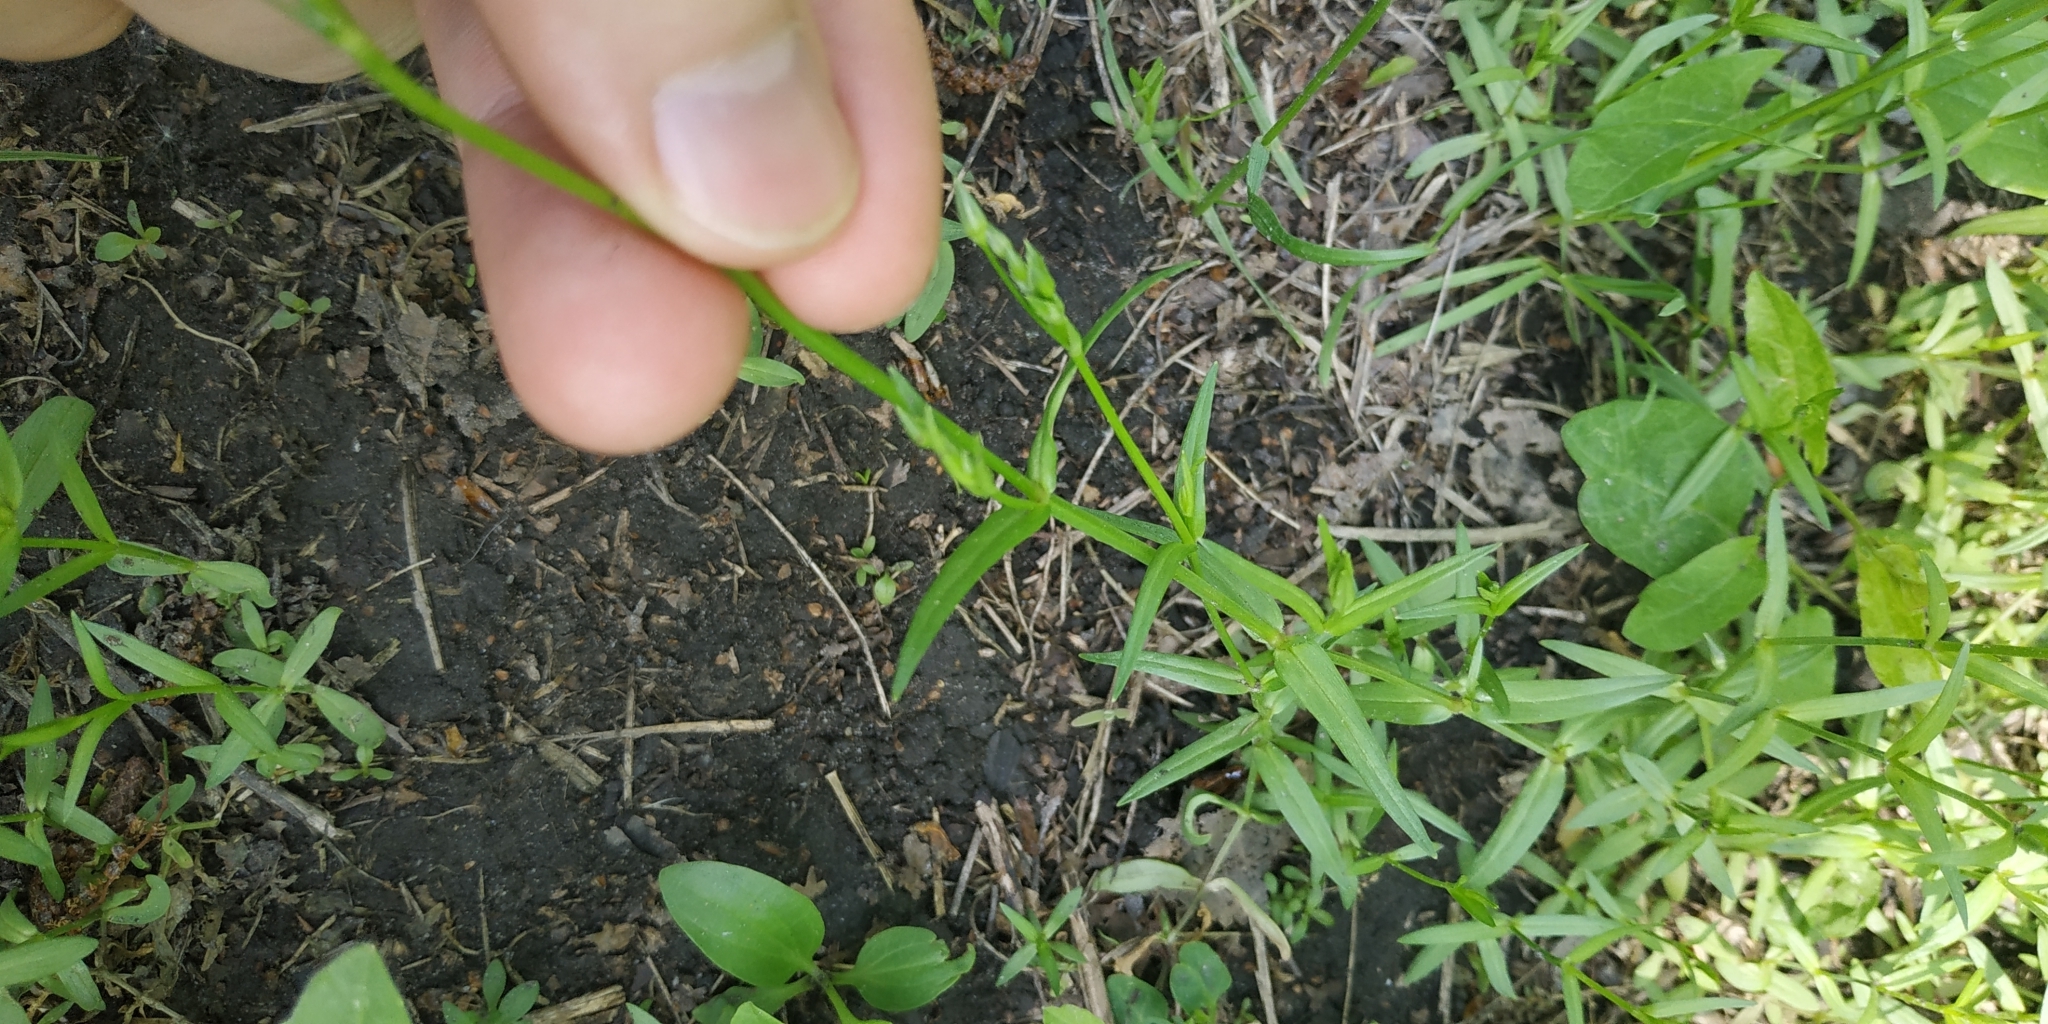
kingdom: Plantae
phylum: Tracheophyta
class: Magnoliopsida
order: Caryophyllales
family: Caryophyllaceae
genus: Stellaria
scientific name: Stellaria graminea
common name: Grass-like starwort
